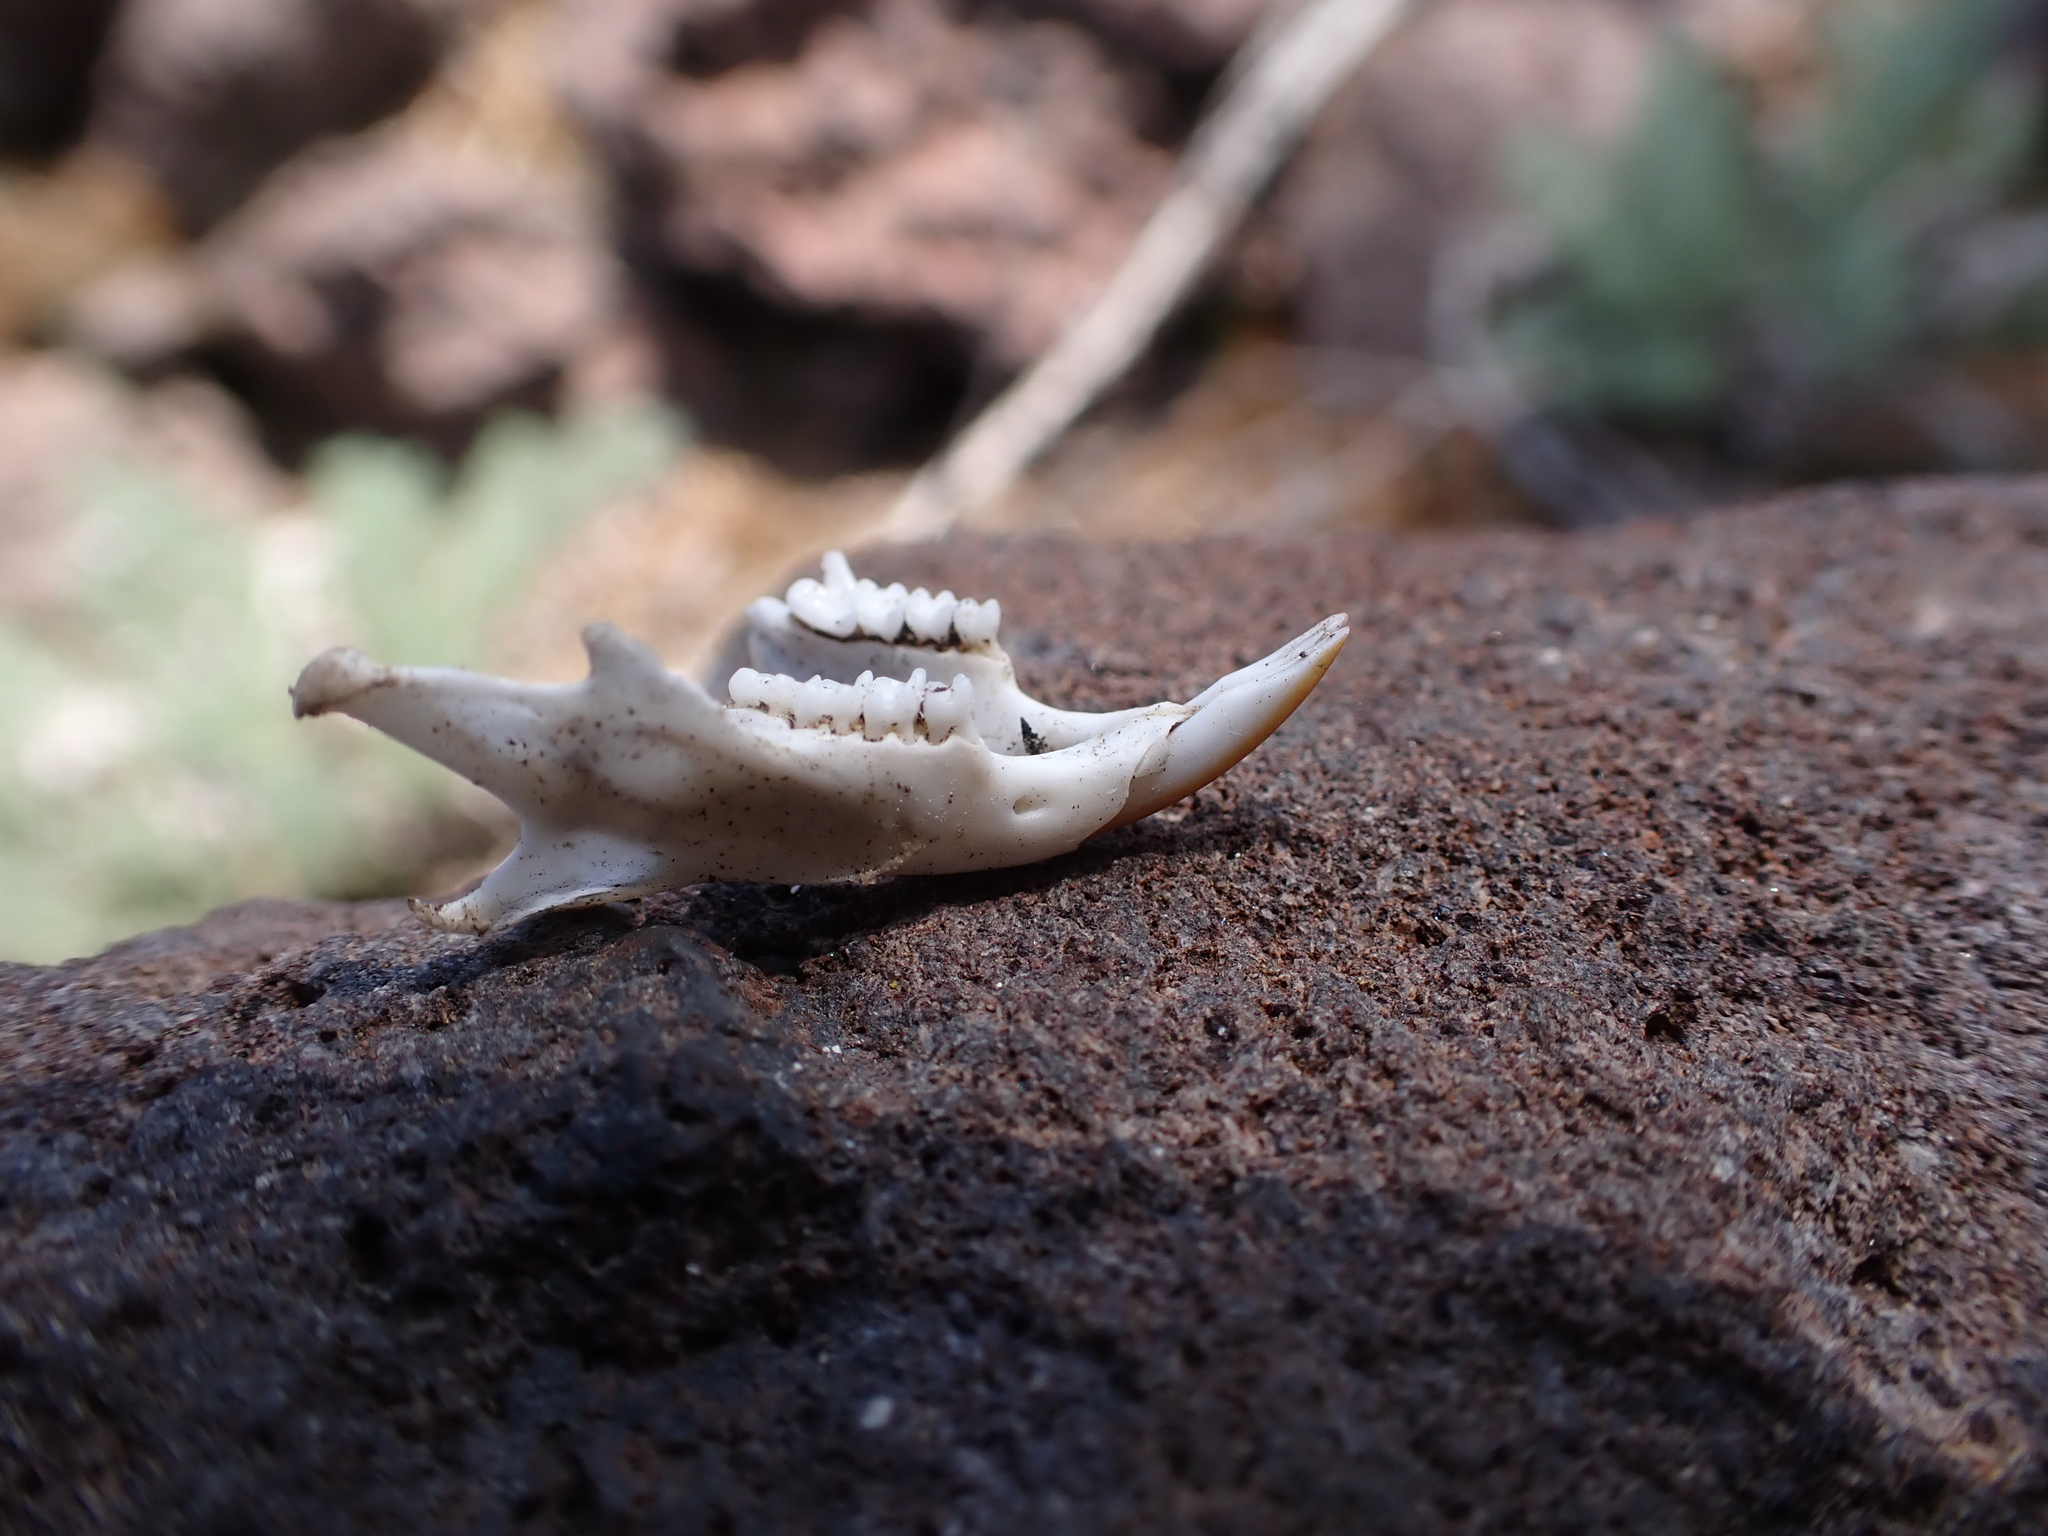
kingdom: Animalia
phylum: Chordata
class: Mammalia
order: Rodentia
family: Sciuridae
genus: Tamias
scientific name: Tamias amoenus
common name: Yellow-pine chipmunk
